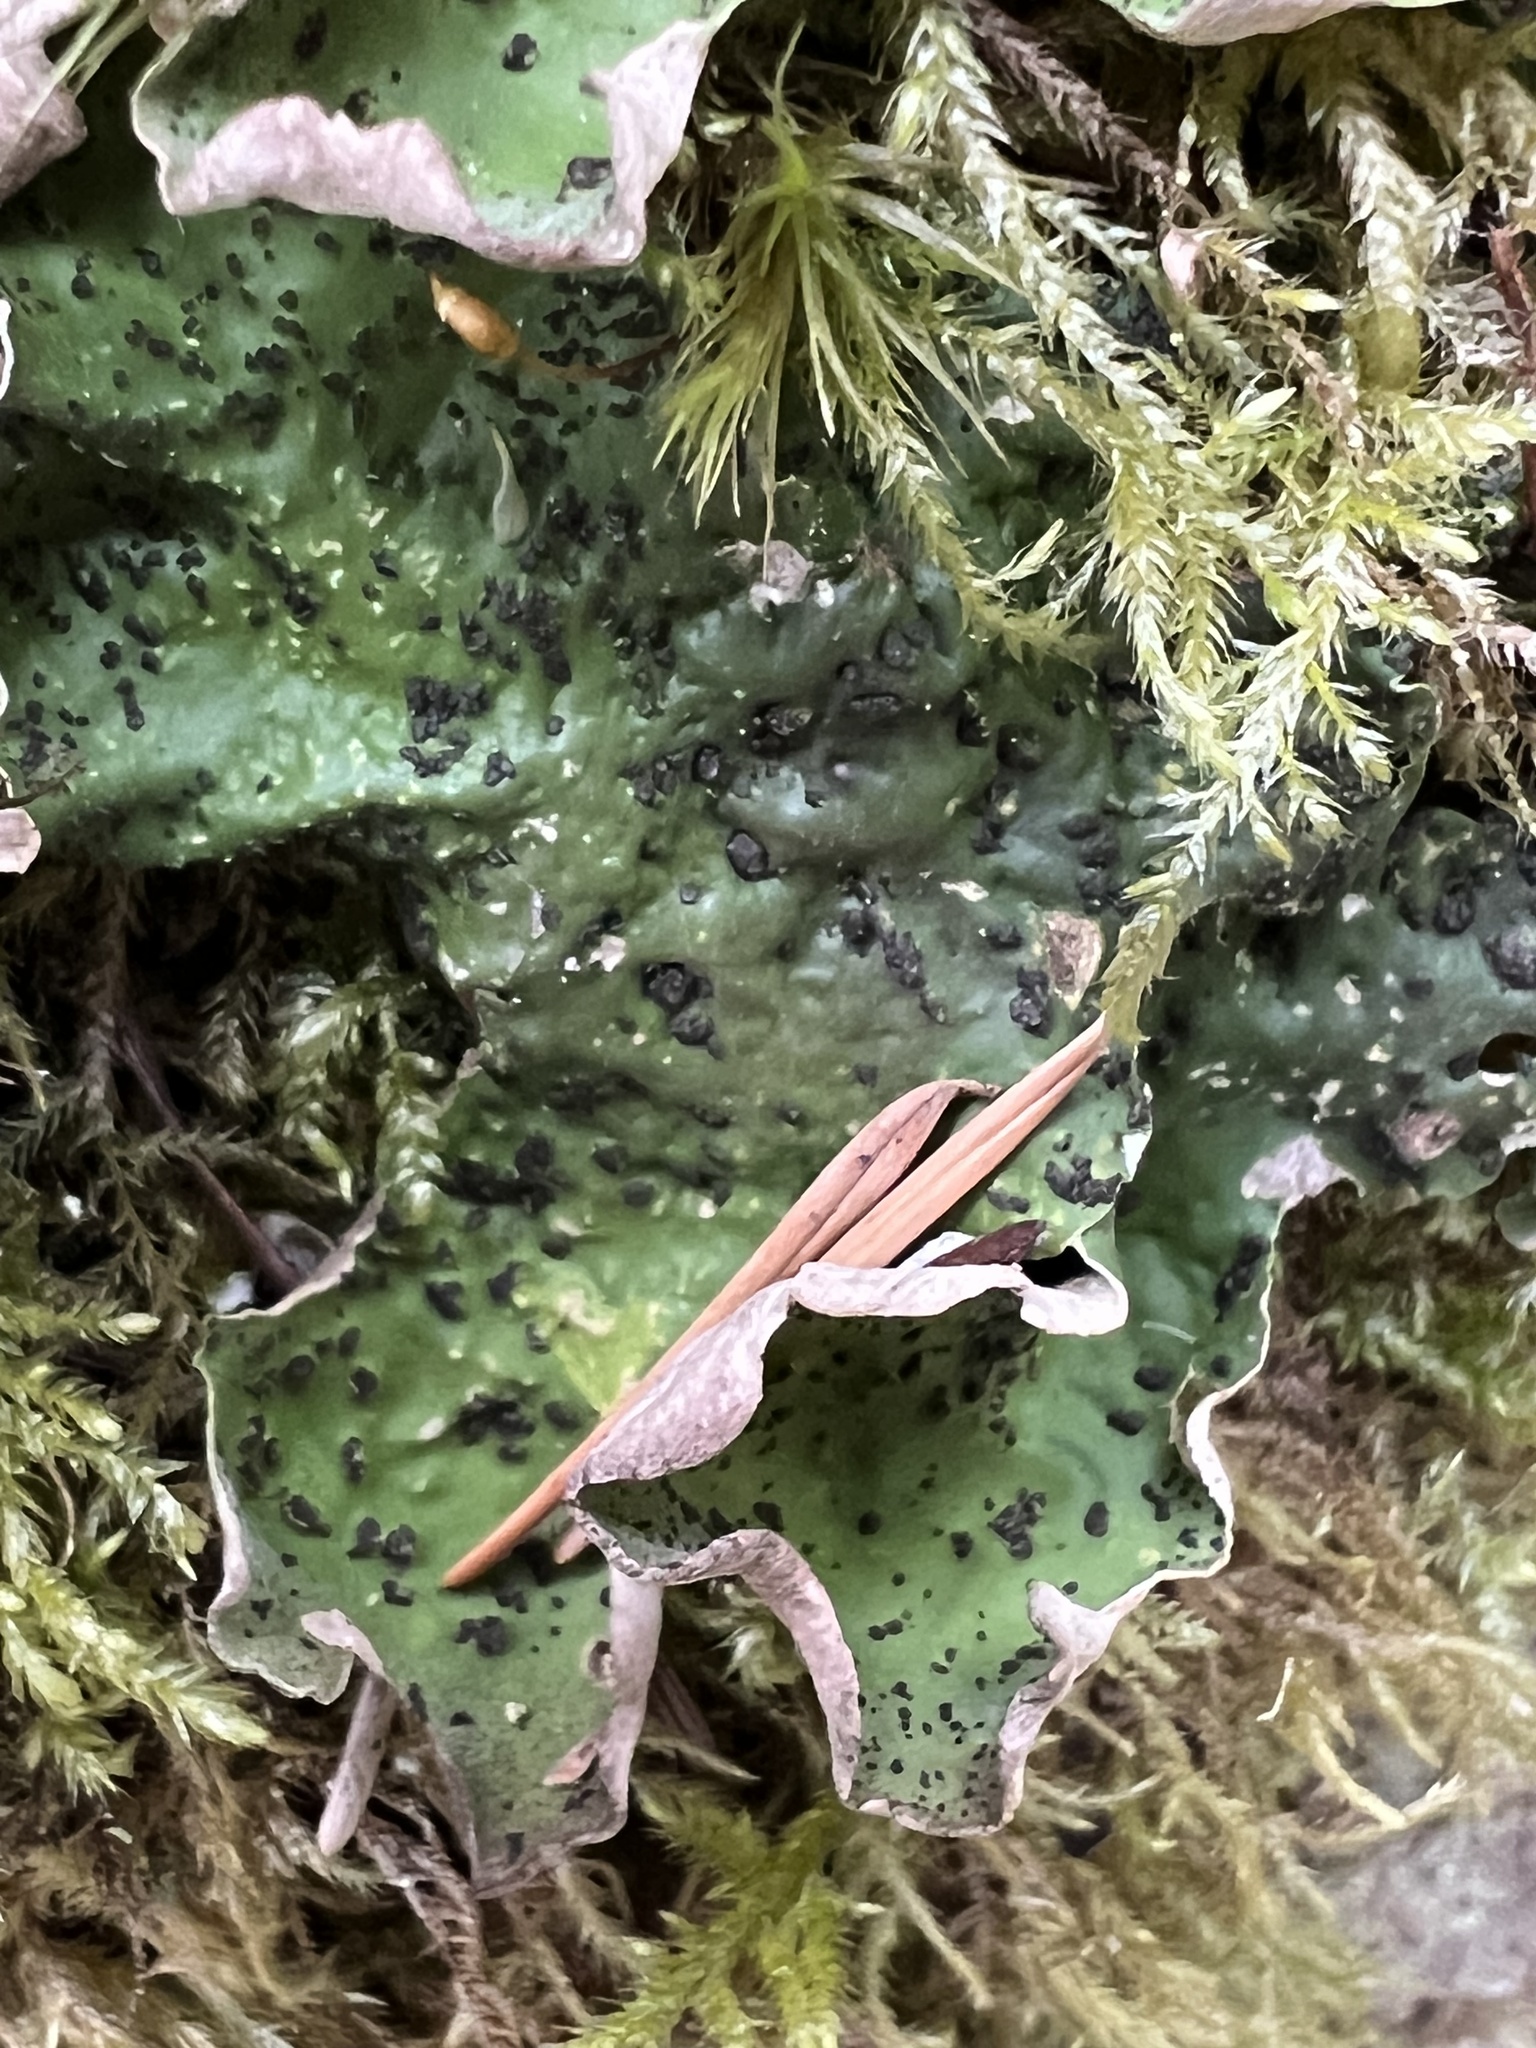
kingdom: Fungi
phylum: Ascomycota
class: Lecanoromycetes
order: Peltigerales
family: Peltigeraceae
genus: Peltigera
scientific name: Peltigera britannica
